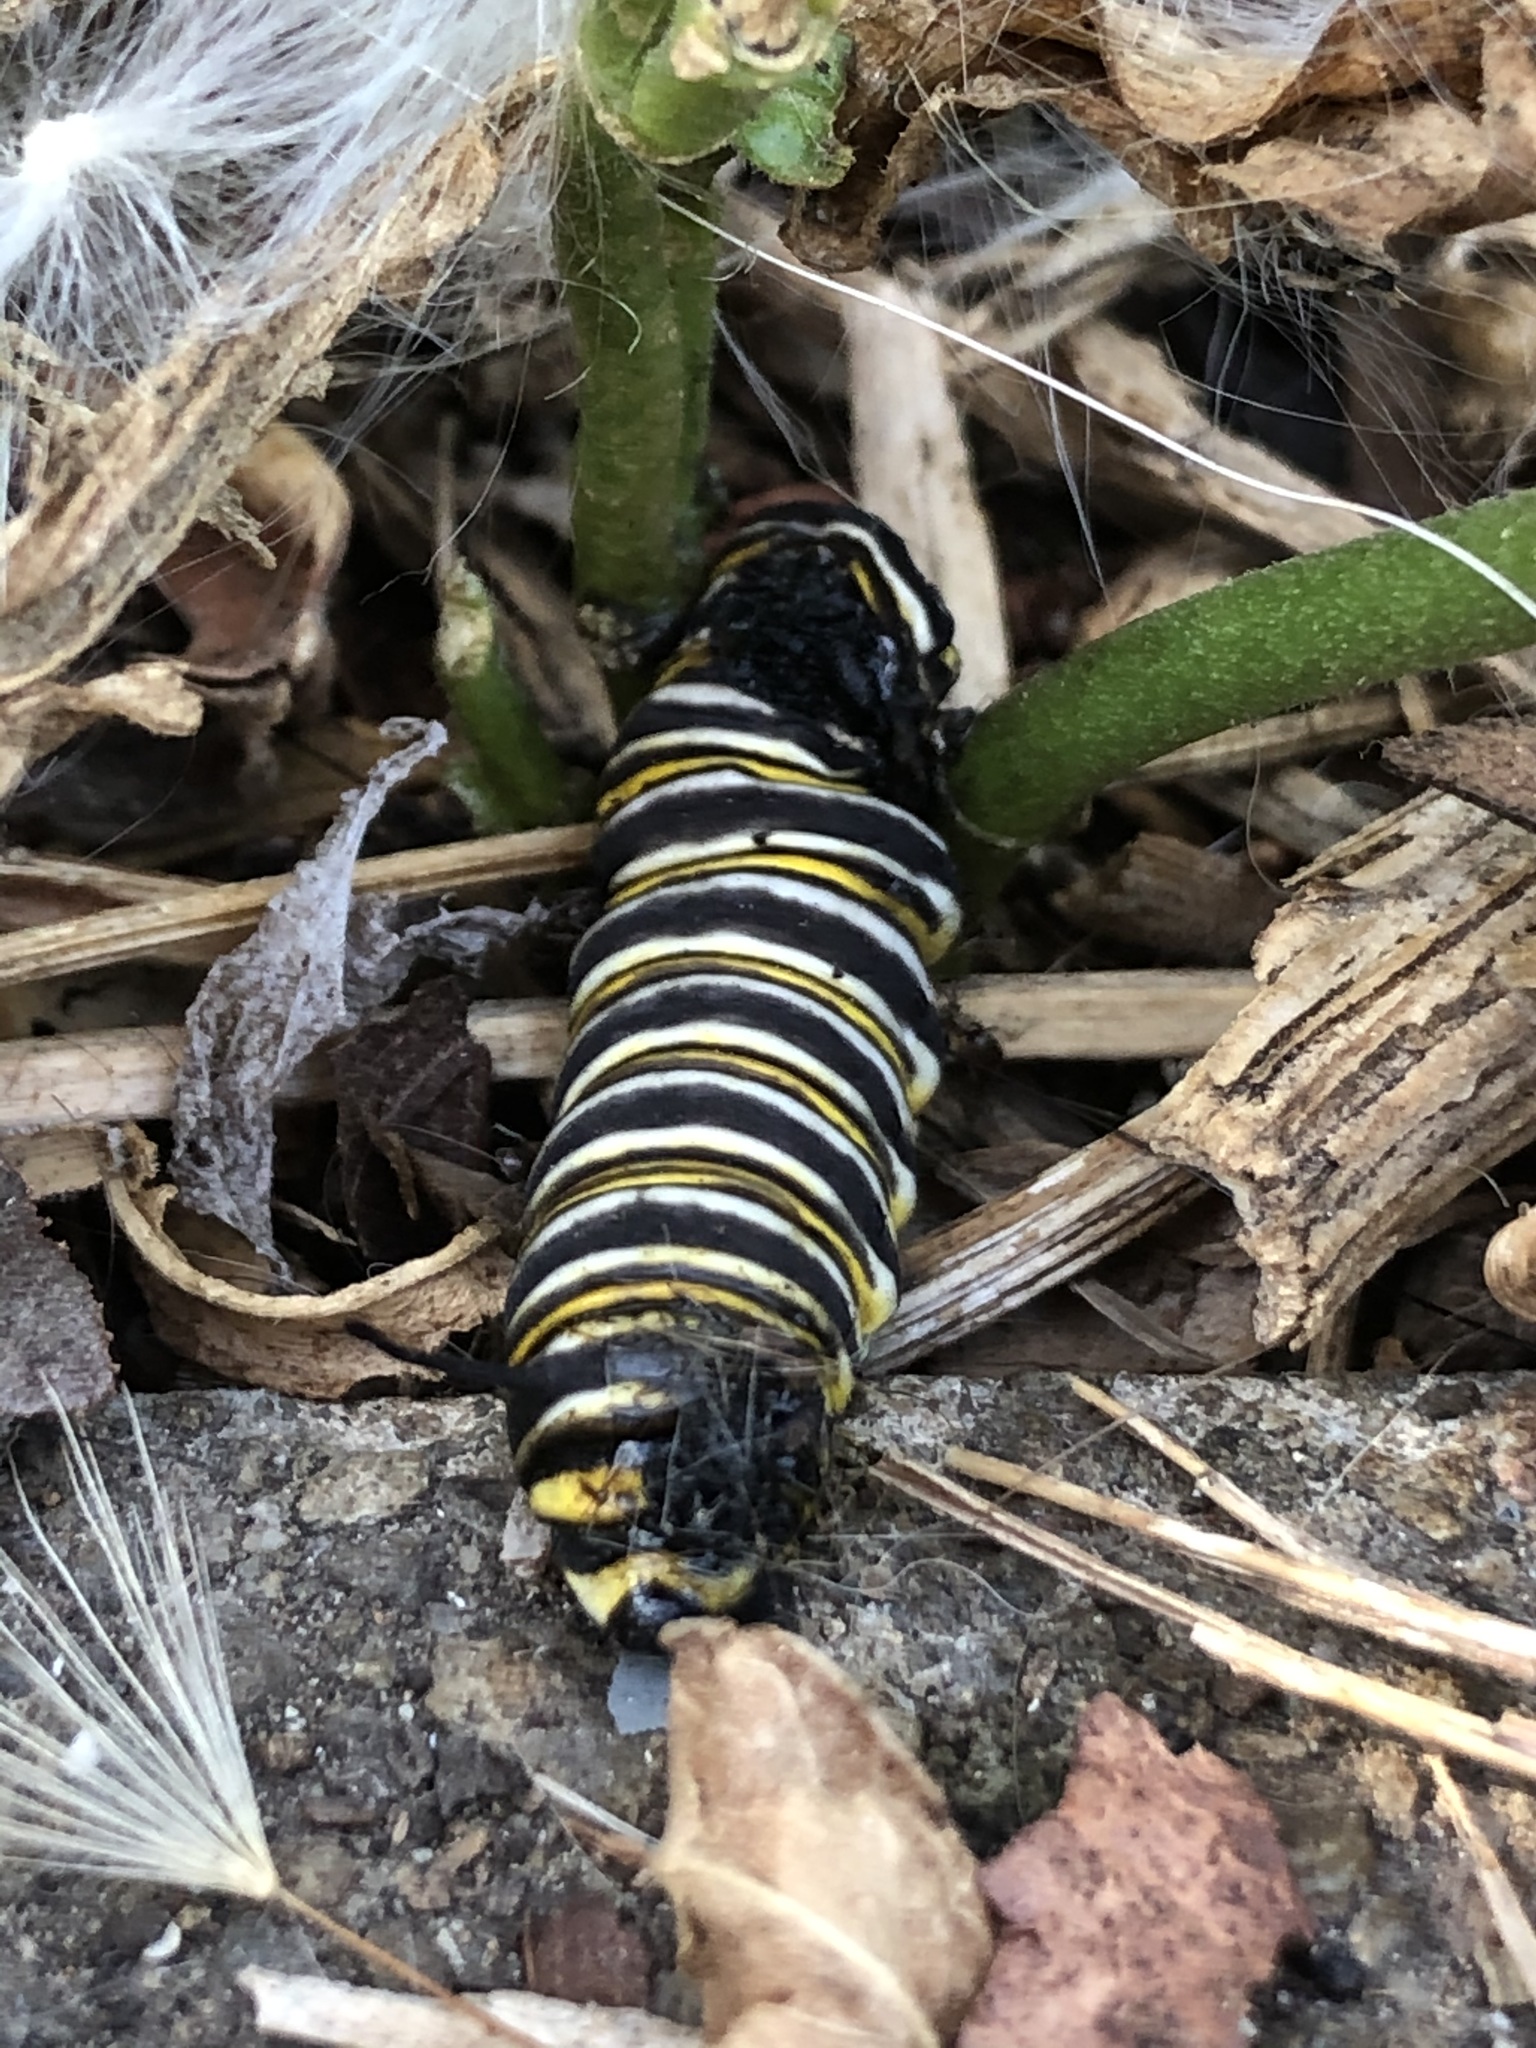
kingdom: Animalia
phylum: Arthropoda
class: Insecta
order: Lepidoptera
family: Nymphalidae
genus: Danaus
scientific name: Danaus plexippus
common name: Monarch
